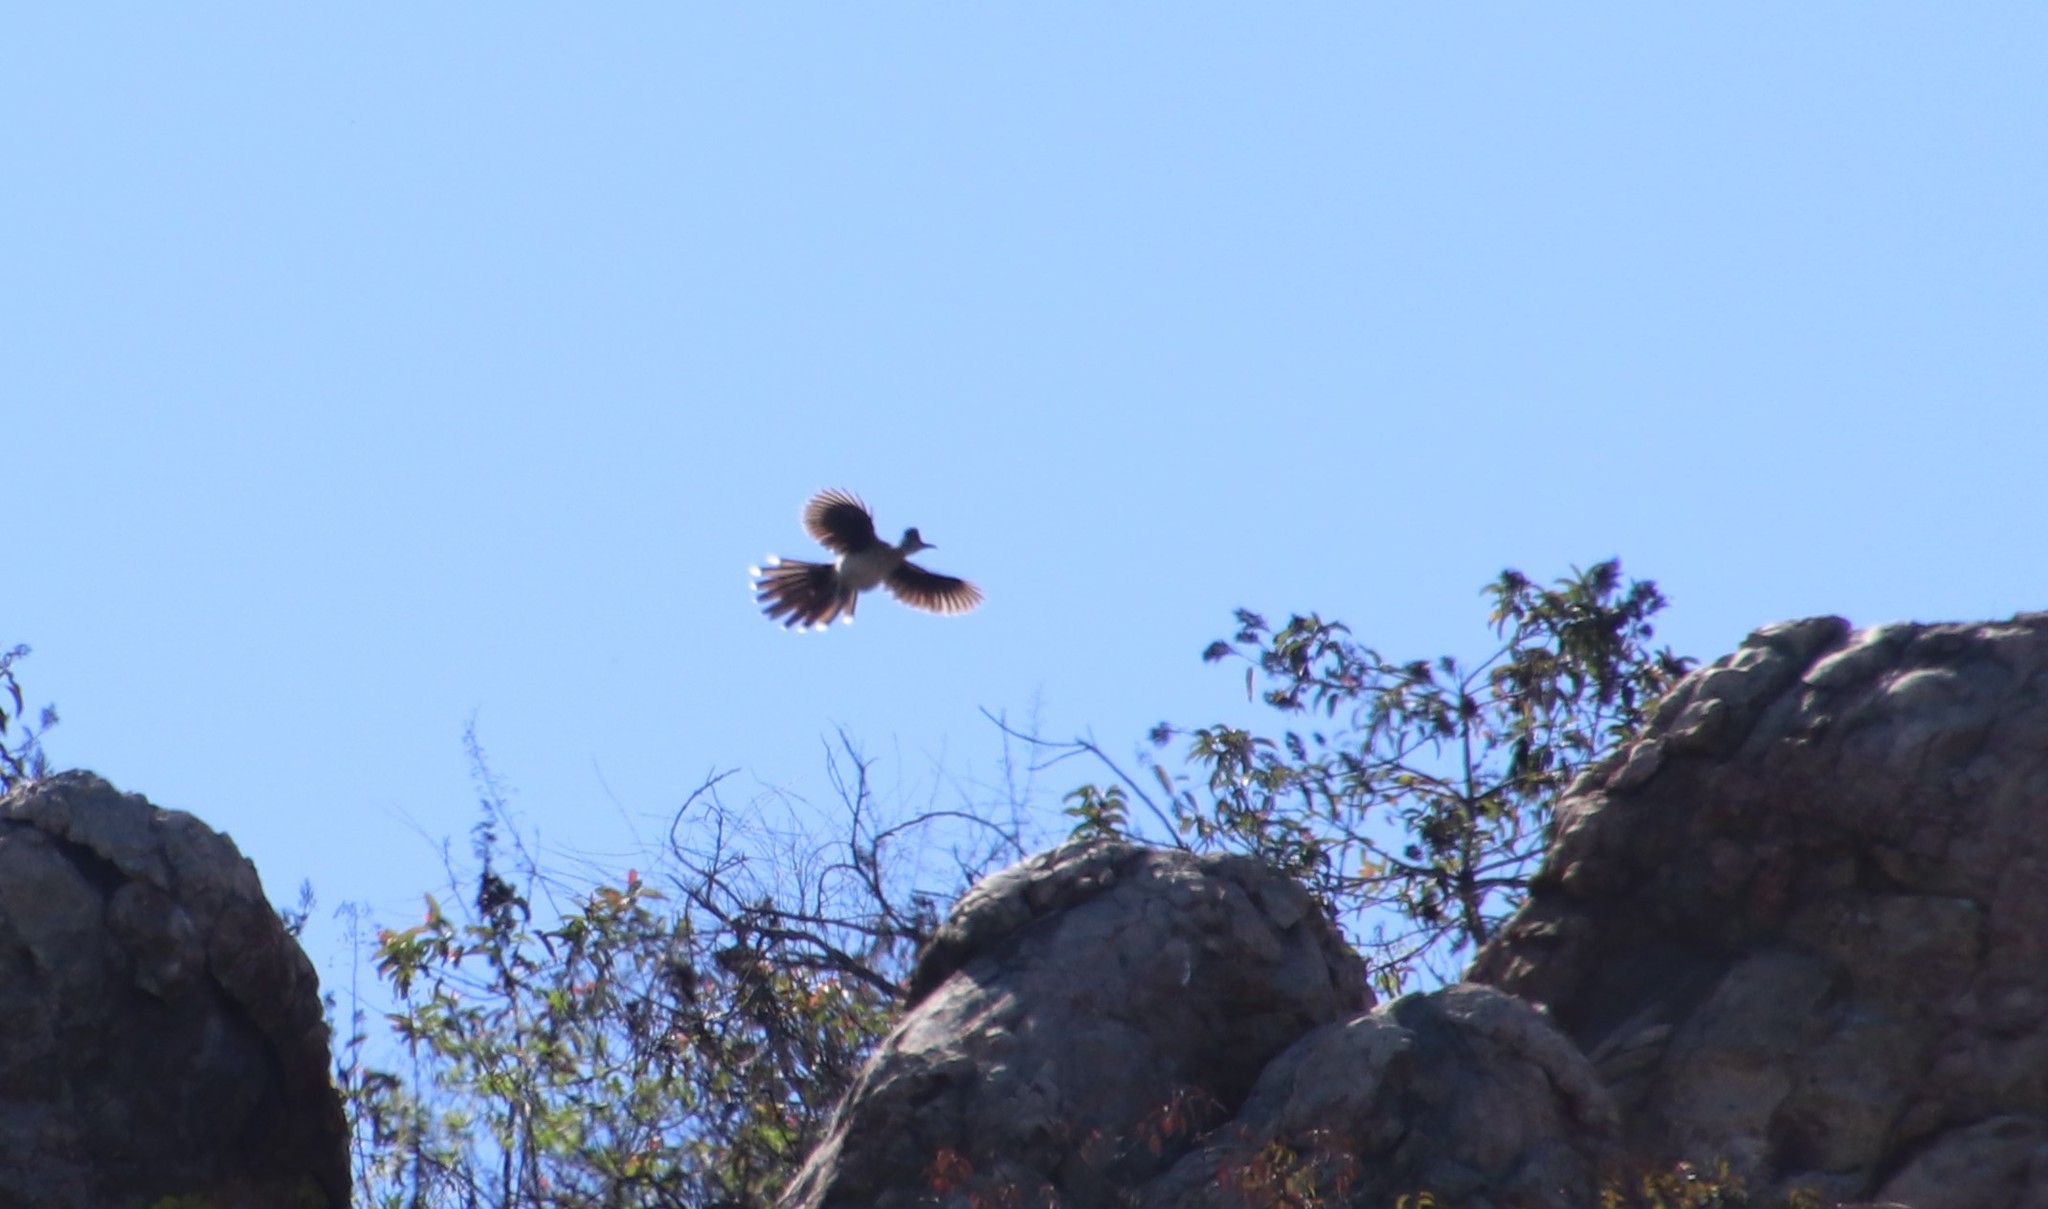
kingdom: Animalia
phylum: Chordata
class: Aves
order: Cuculiformes
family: Cuculidae
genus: Geococcyx
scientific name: Geococcyx californianus
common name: Greater roadrunner
